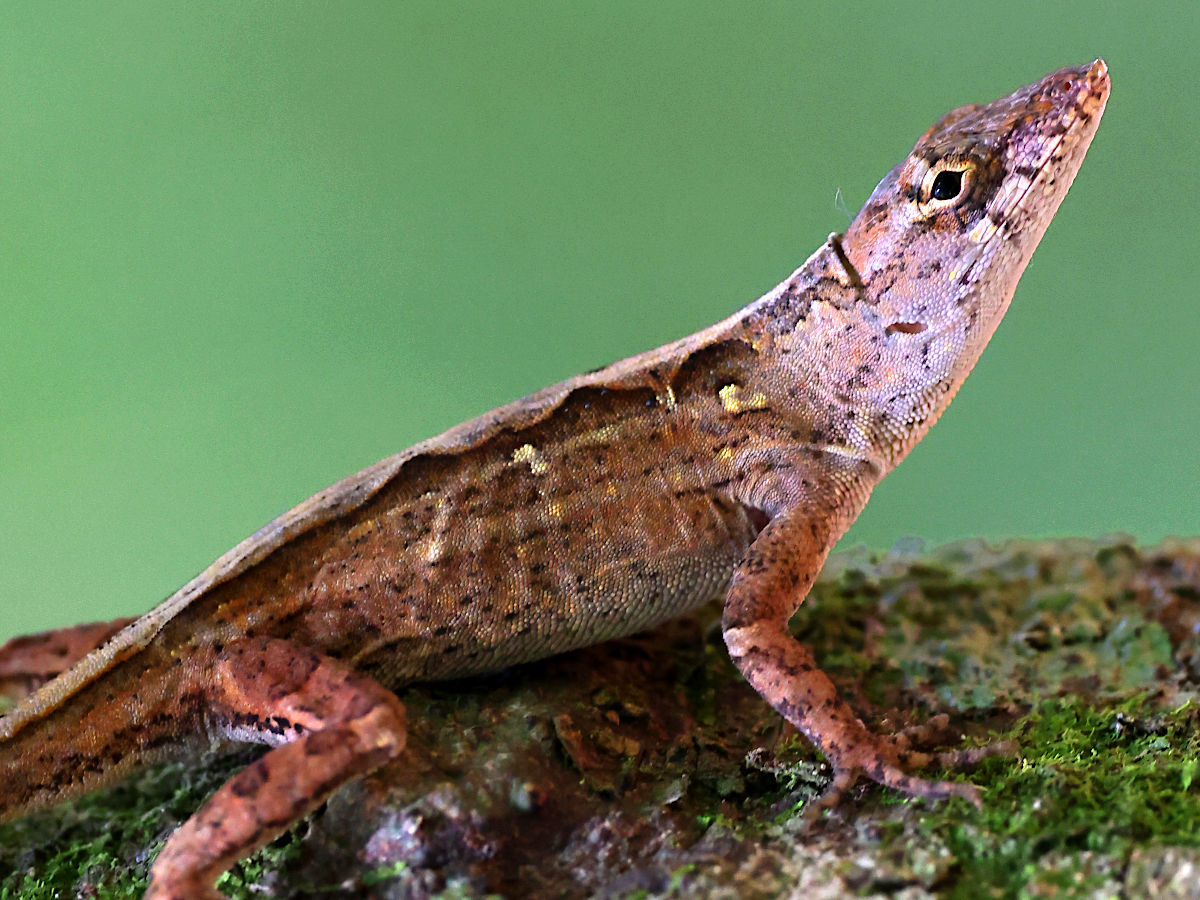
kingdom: Animalia
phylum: Chordata
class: Squamata
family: Dactyloidae
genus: Anolis
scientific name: Anolis sagrei
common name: Brown anole
